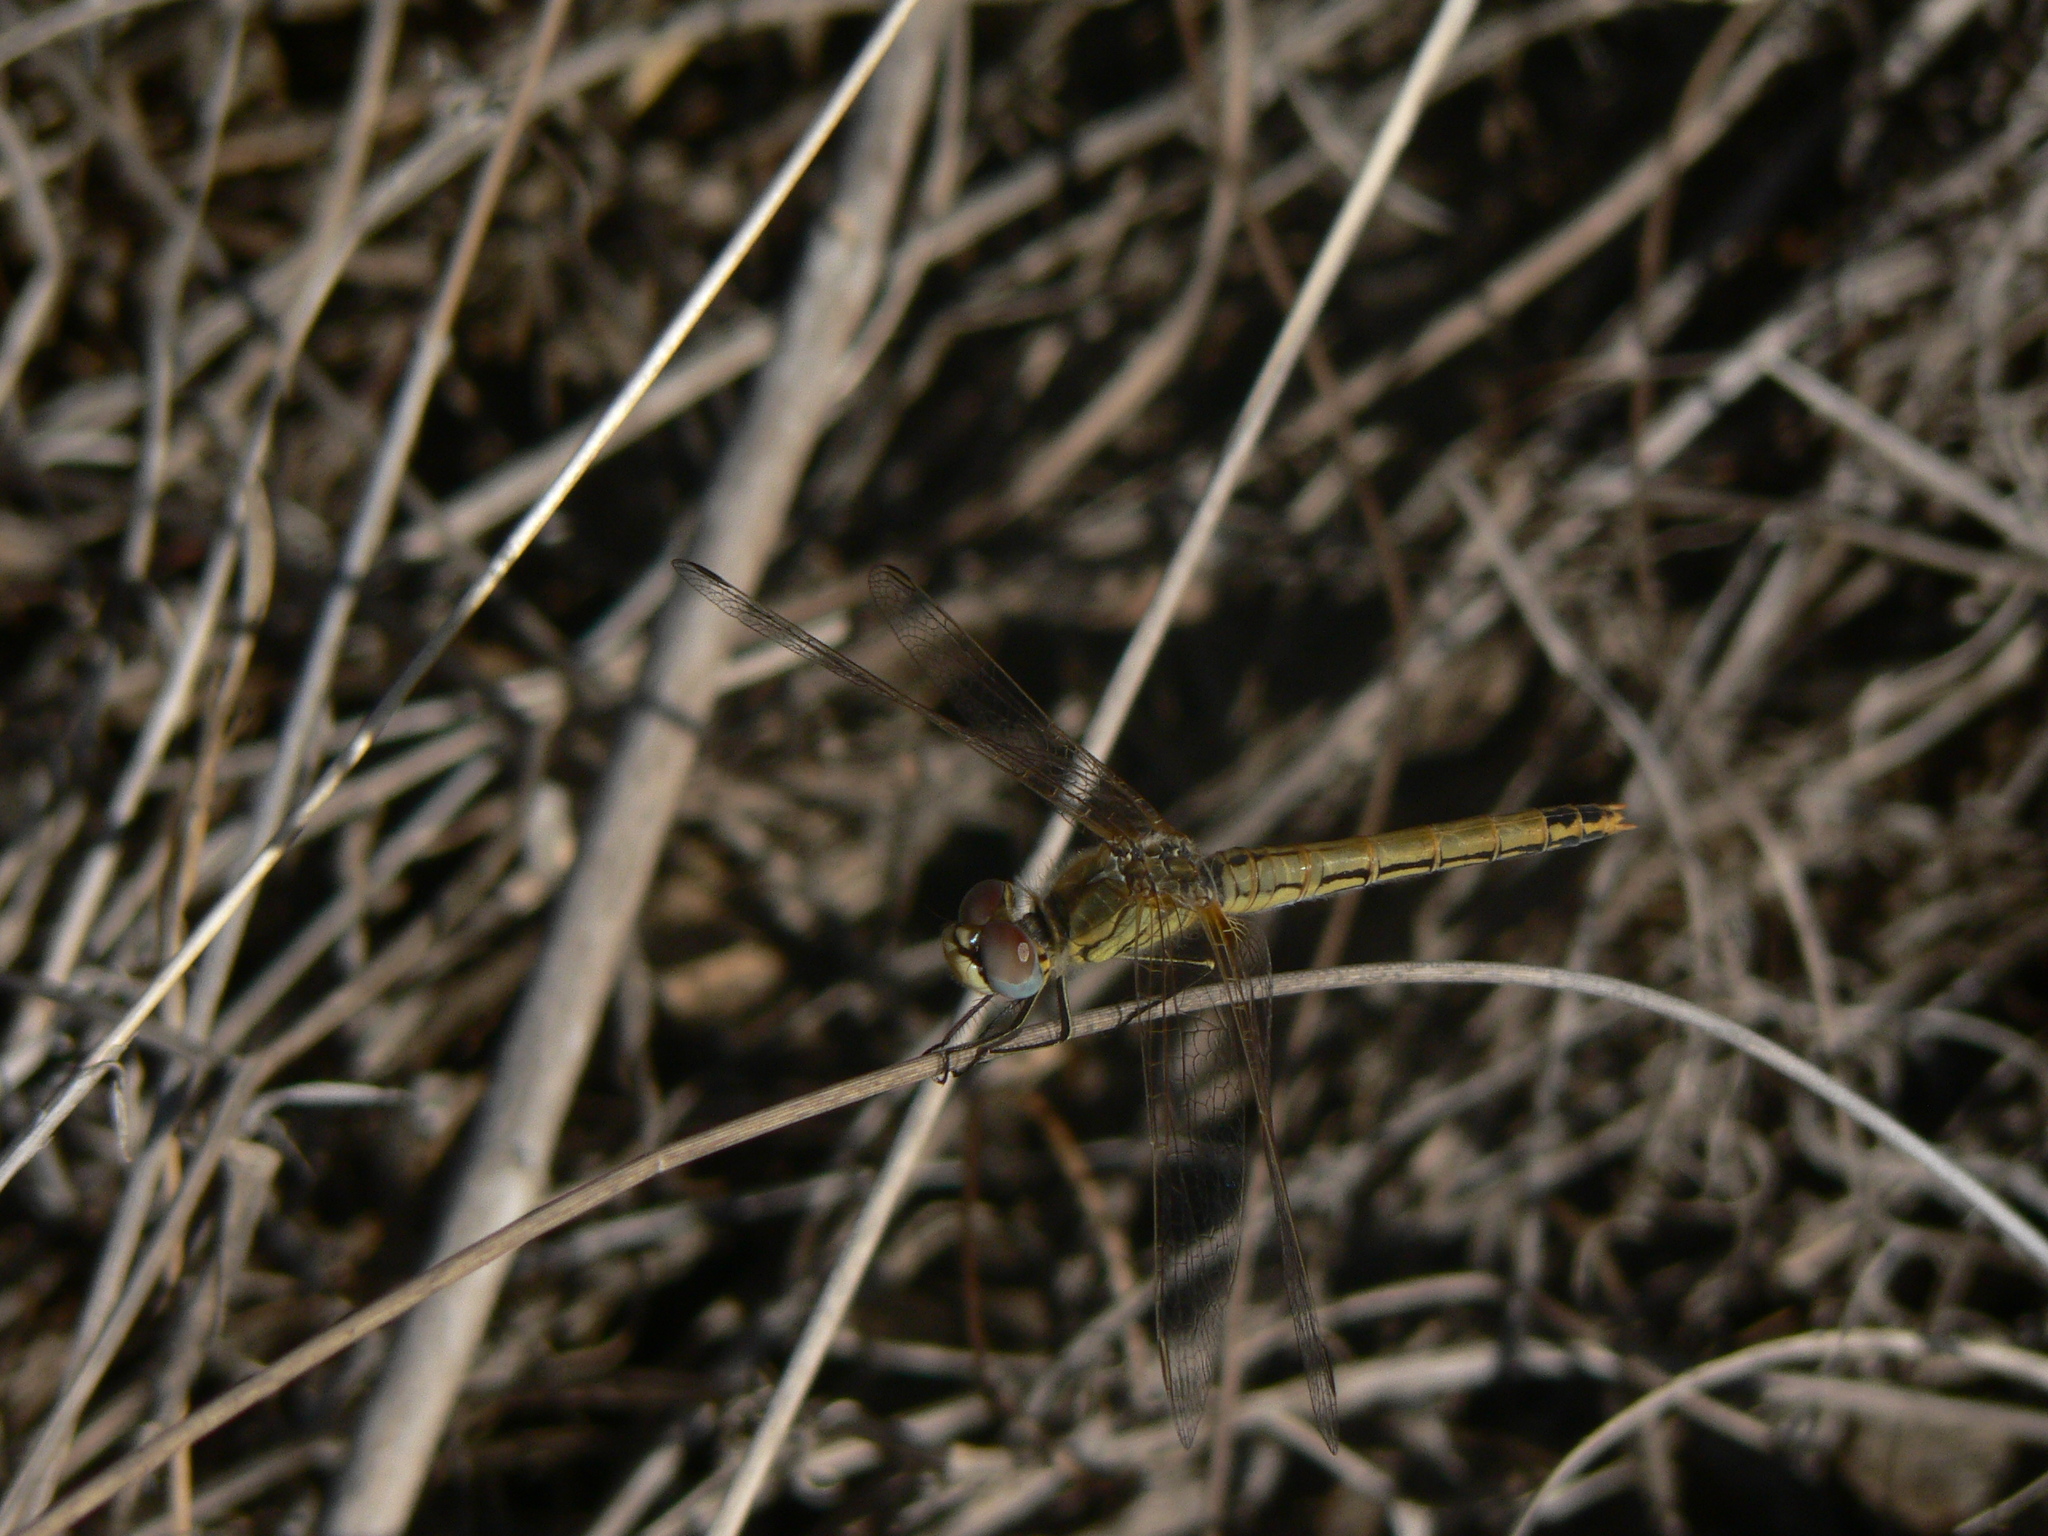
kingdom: Animalia
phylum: Arthropoda
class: Insecta
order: Odonata
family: Libellulidae
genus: Sympetrum
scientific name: Sympetrum fonscolombii
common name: Red-veined darter
